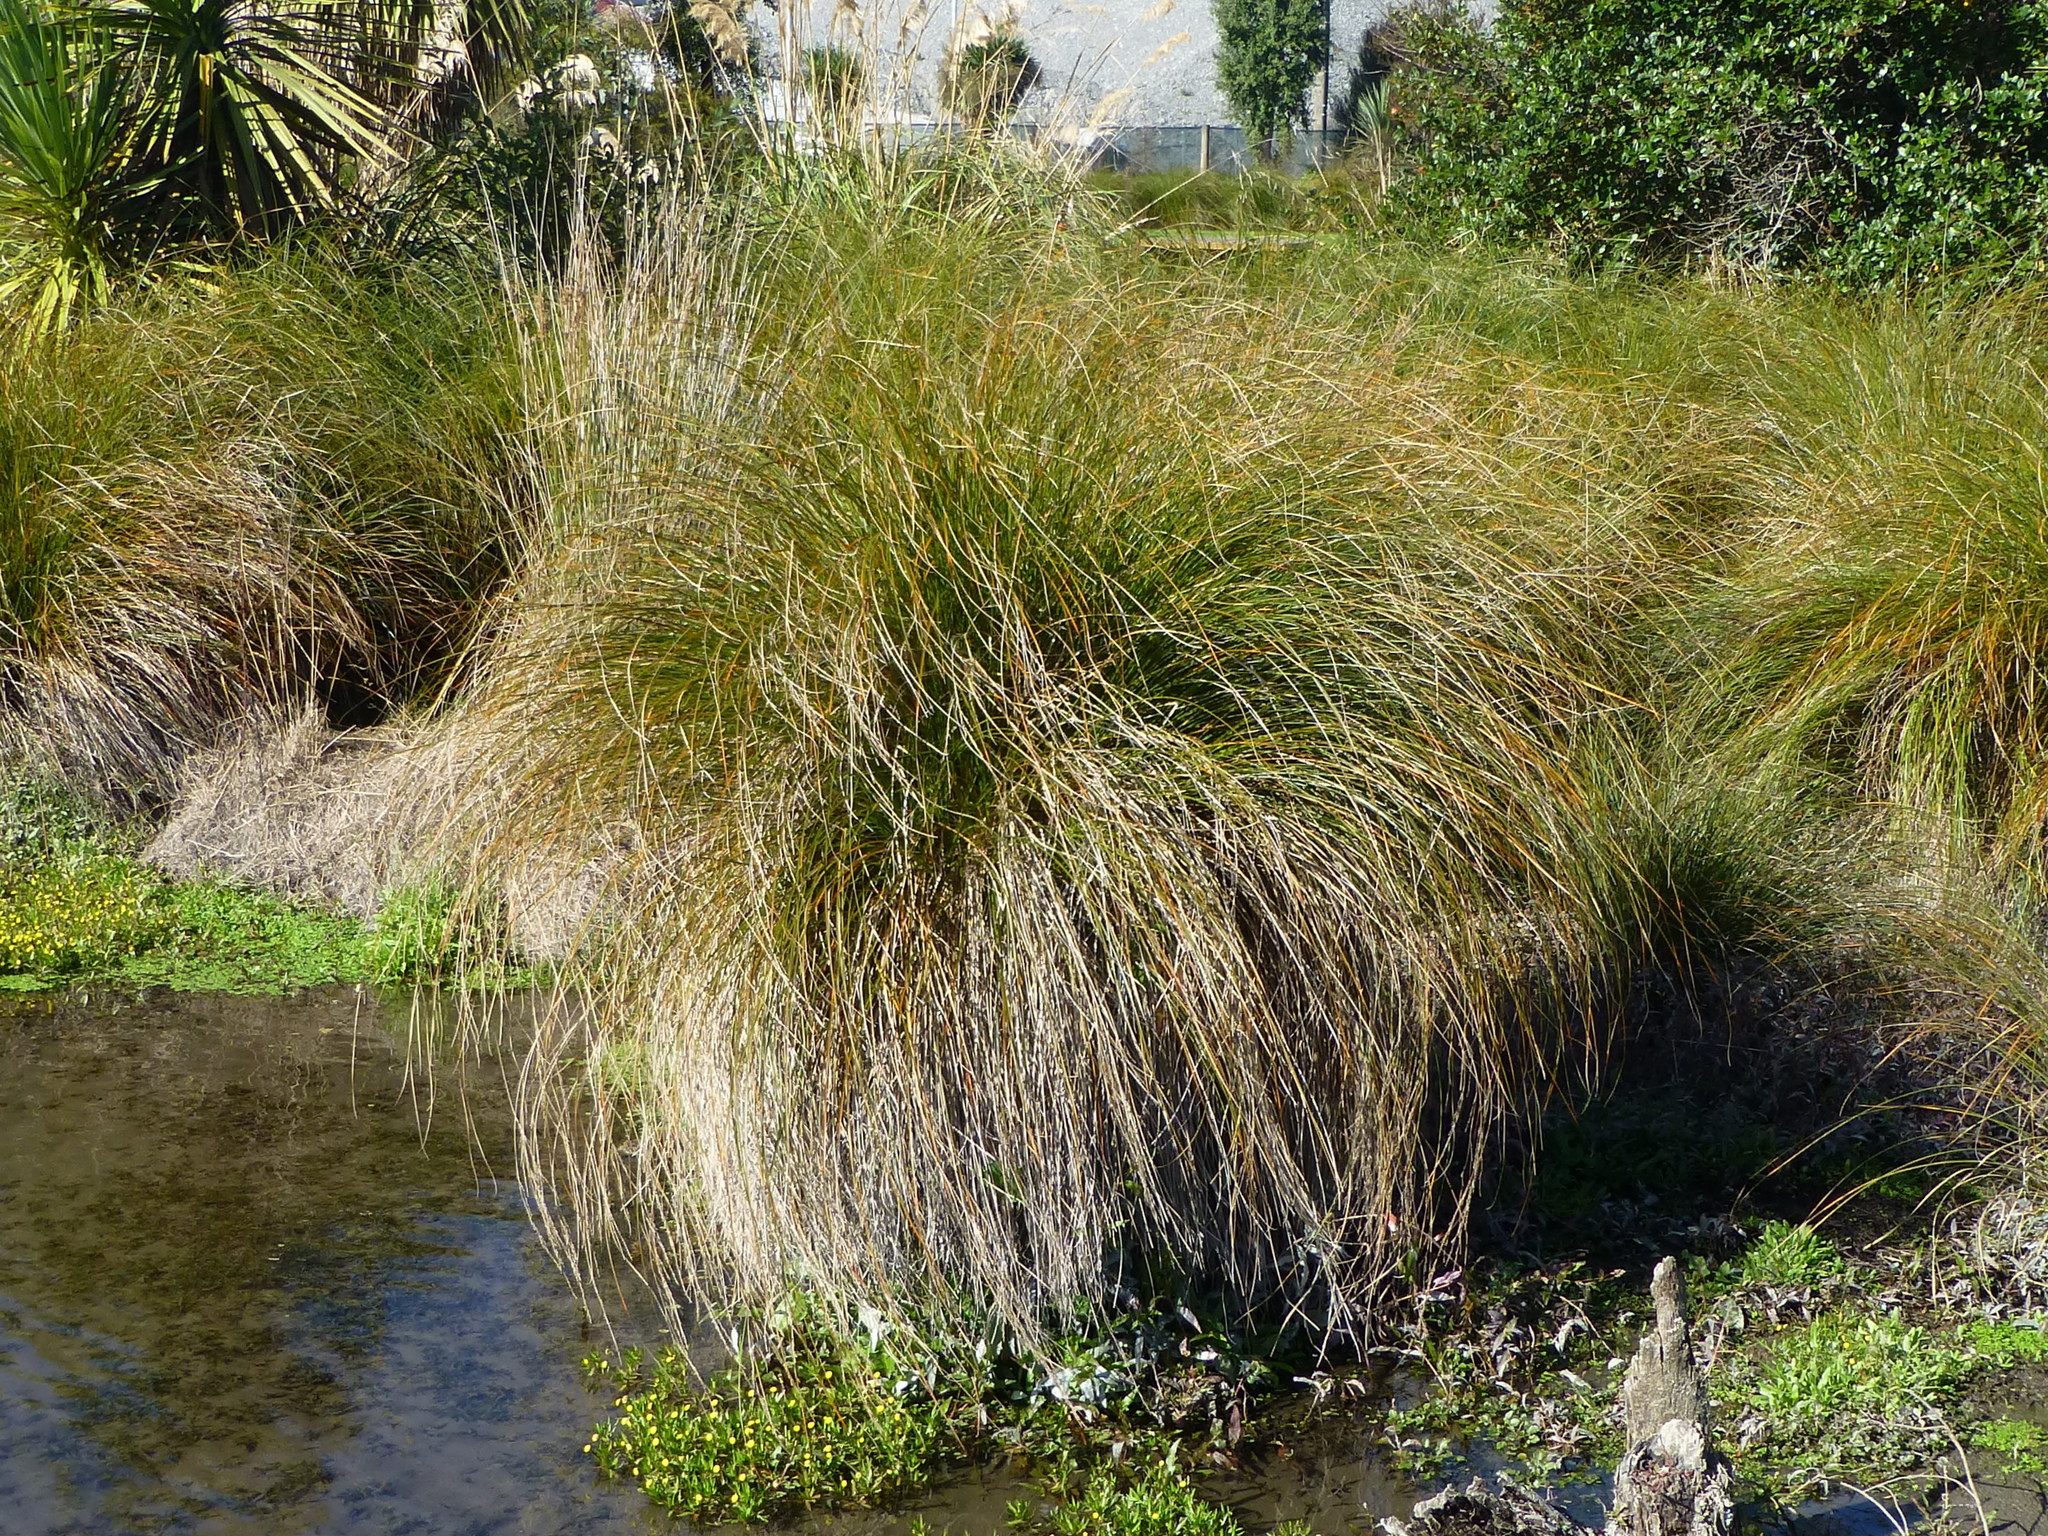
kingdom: Plantae
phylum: Tracheophyta
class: Liliopsida
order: Poales
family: Cyperaceae
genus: Carex
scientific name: Carex secta
